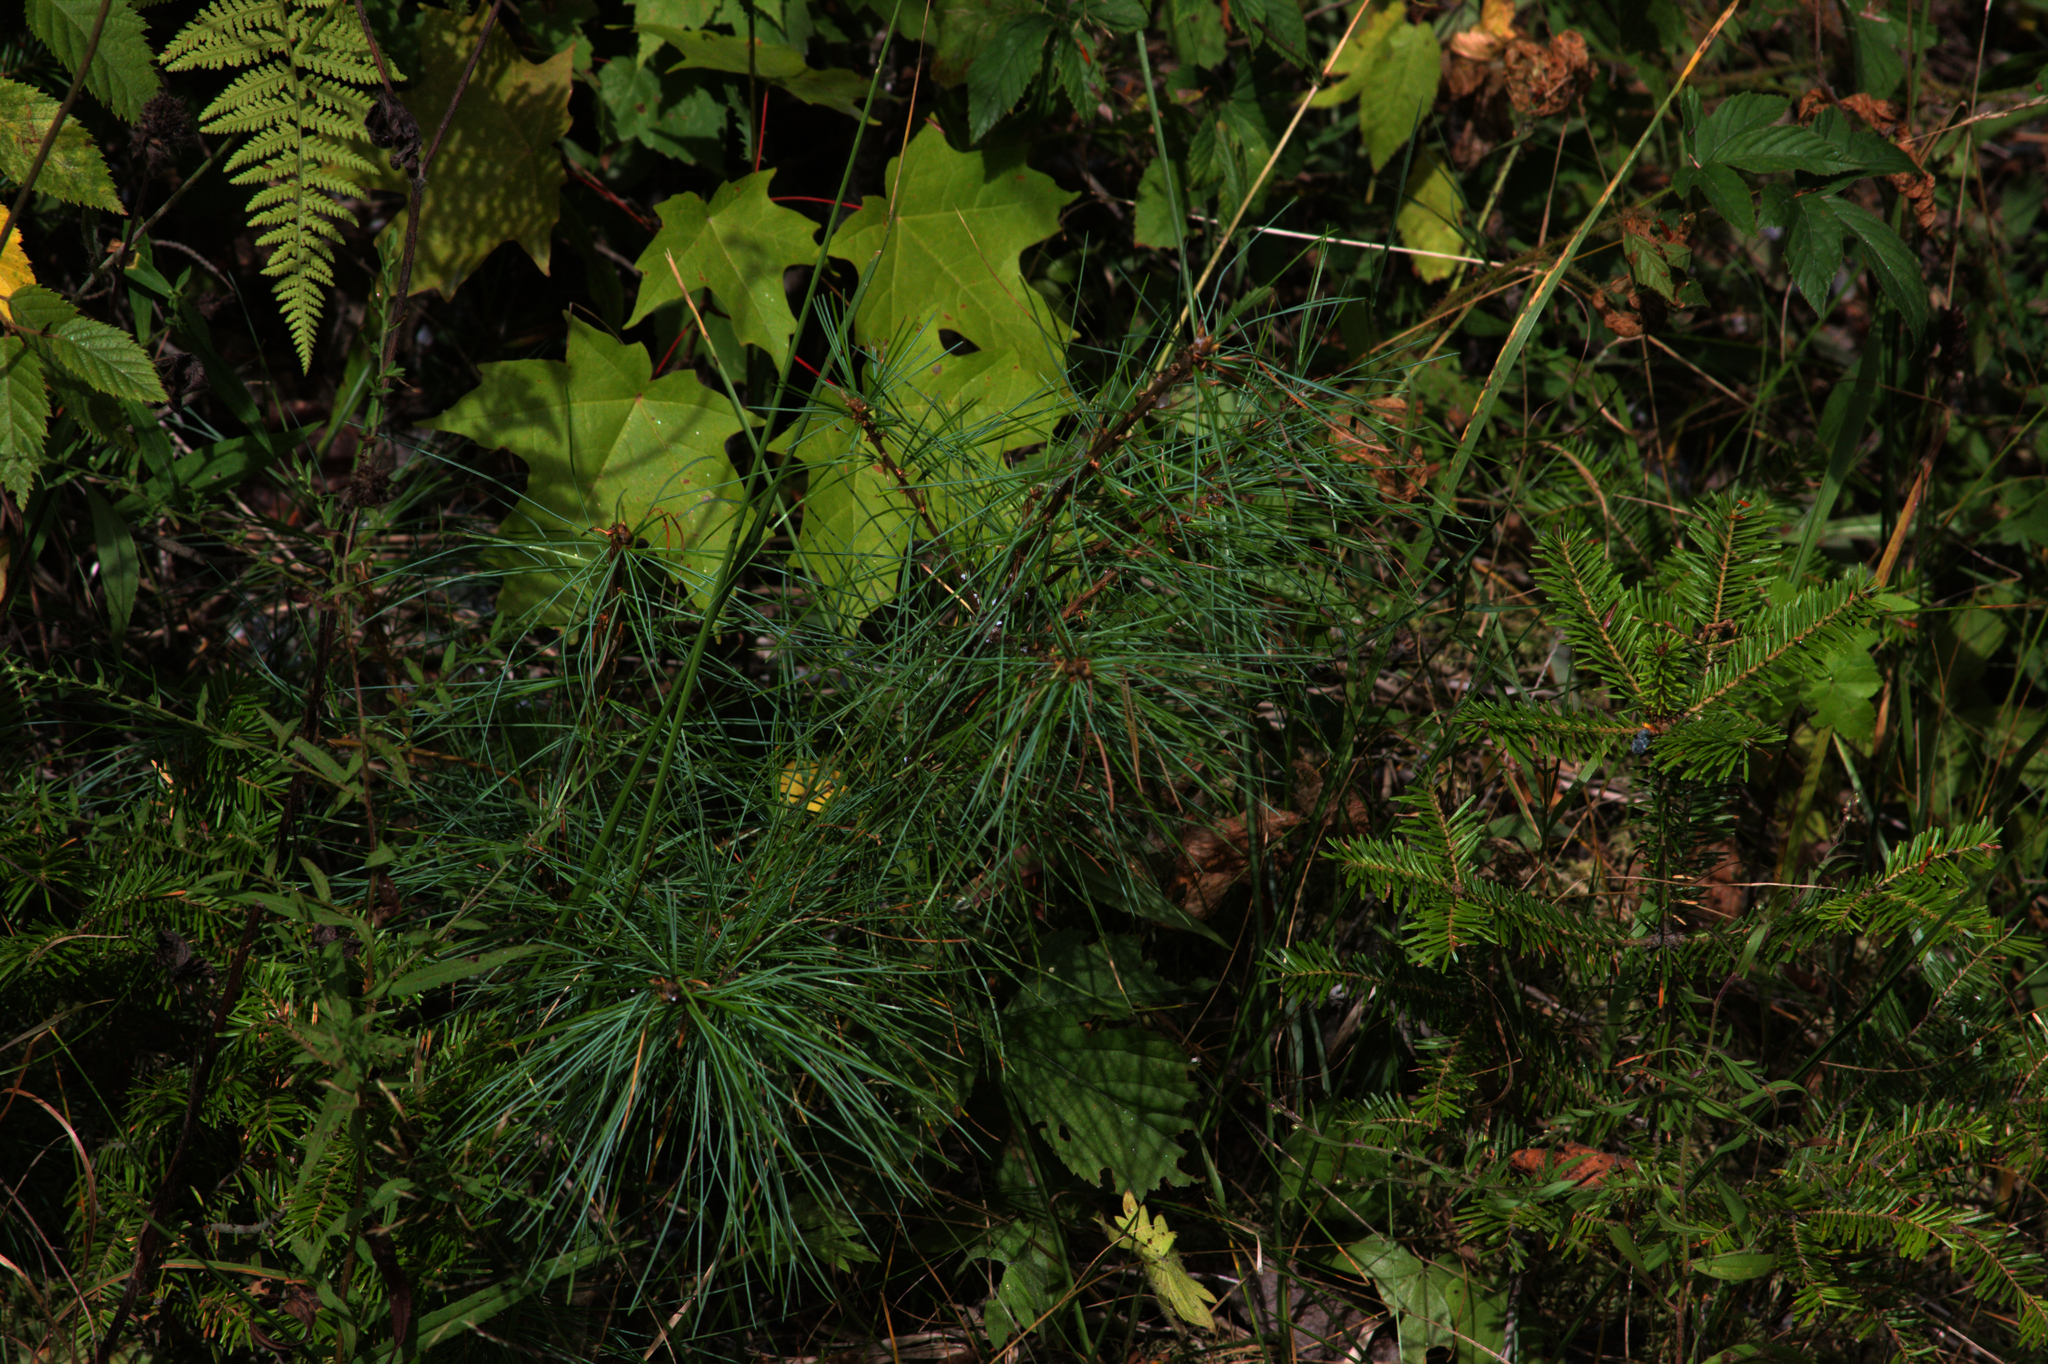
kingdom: Plantae
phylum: Tracheophyta
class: Pinopsida
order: Pinales
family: Pinaceae
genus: Abies
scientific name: Abies balsamea
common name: Balsam fir
